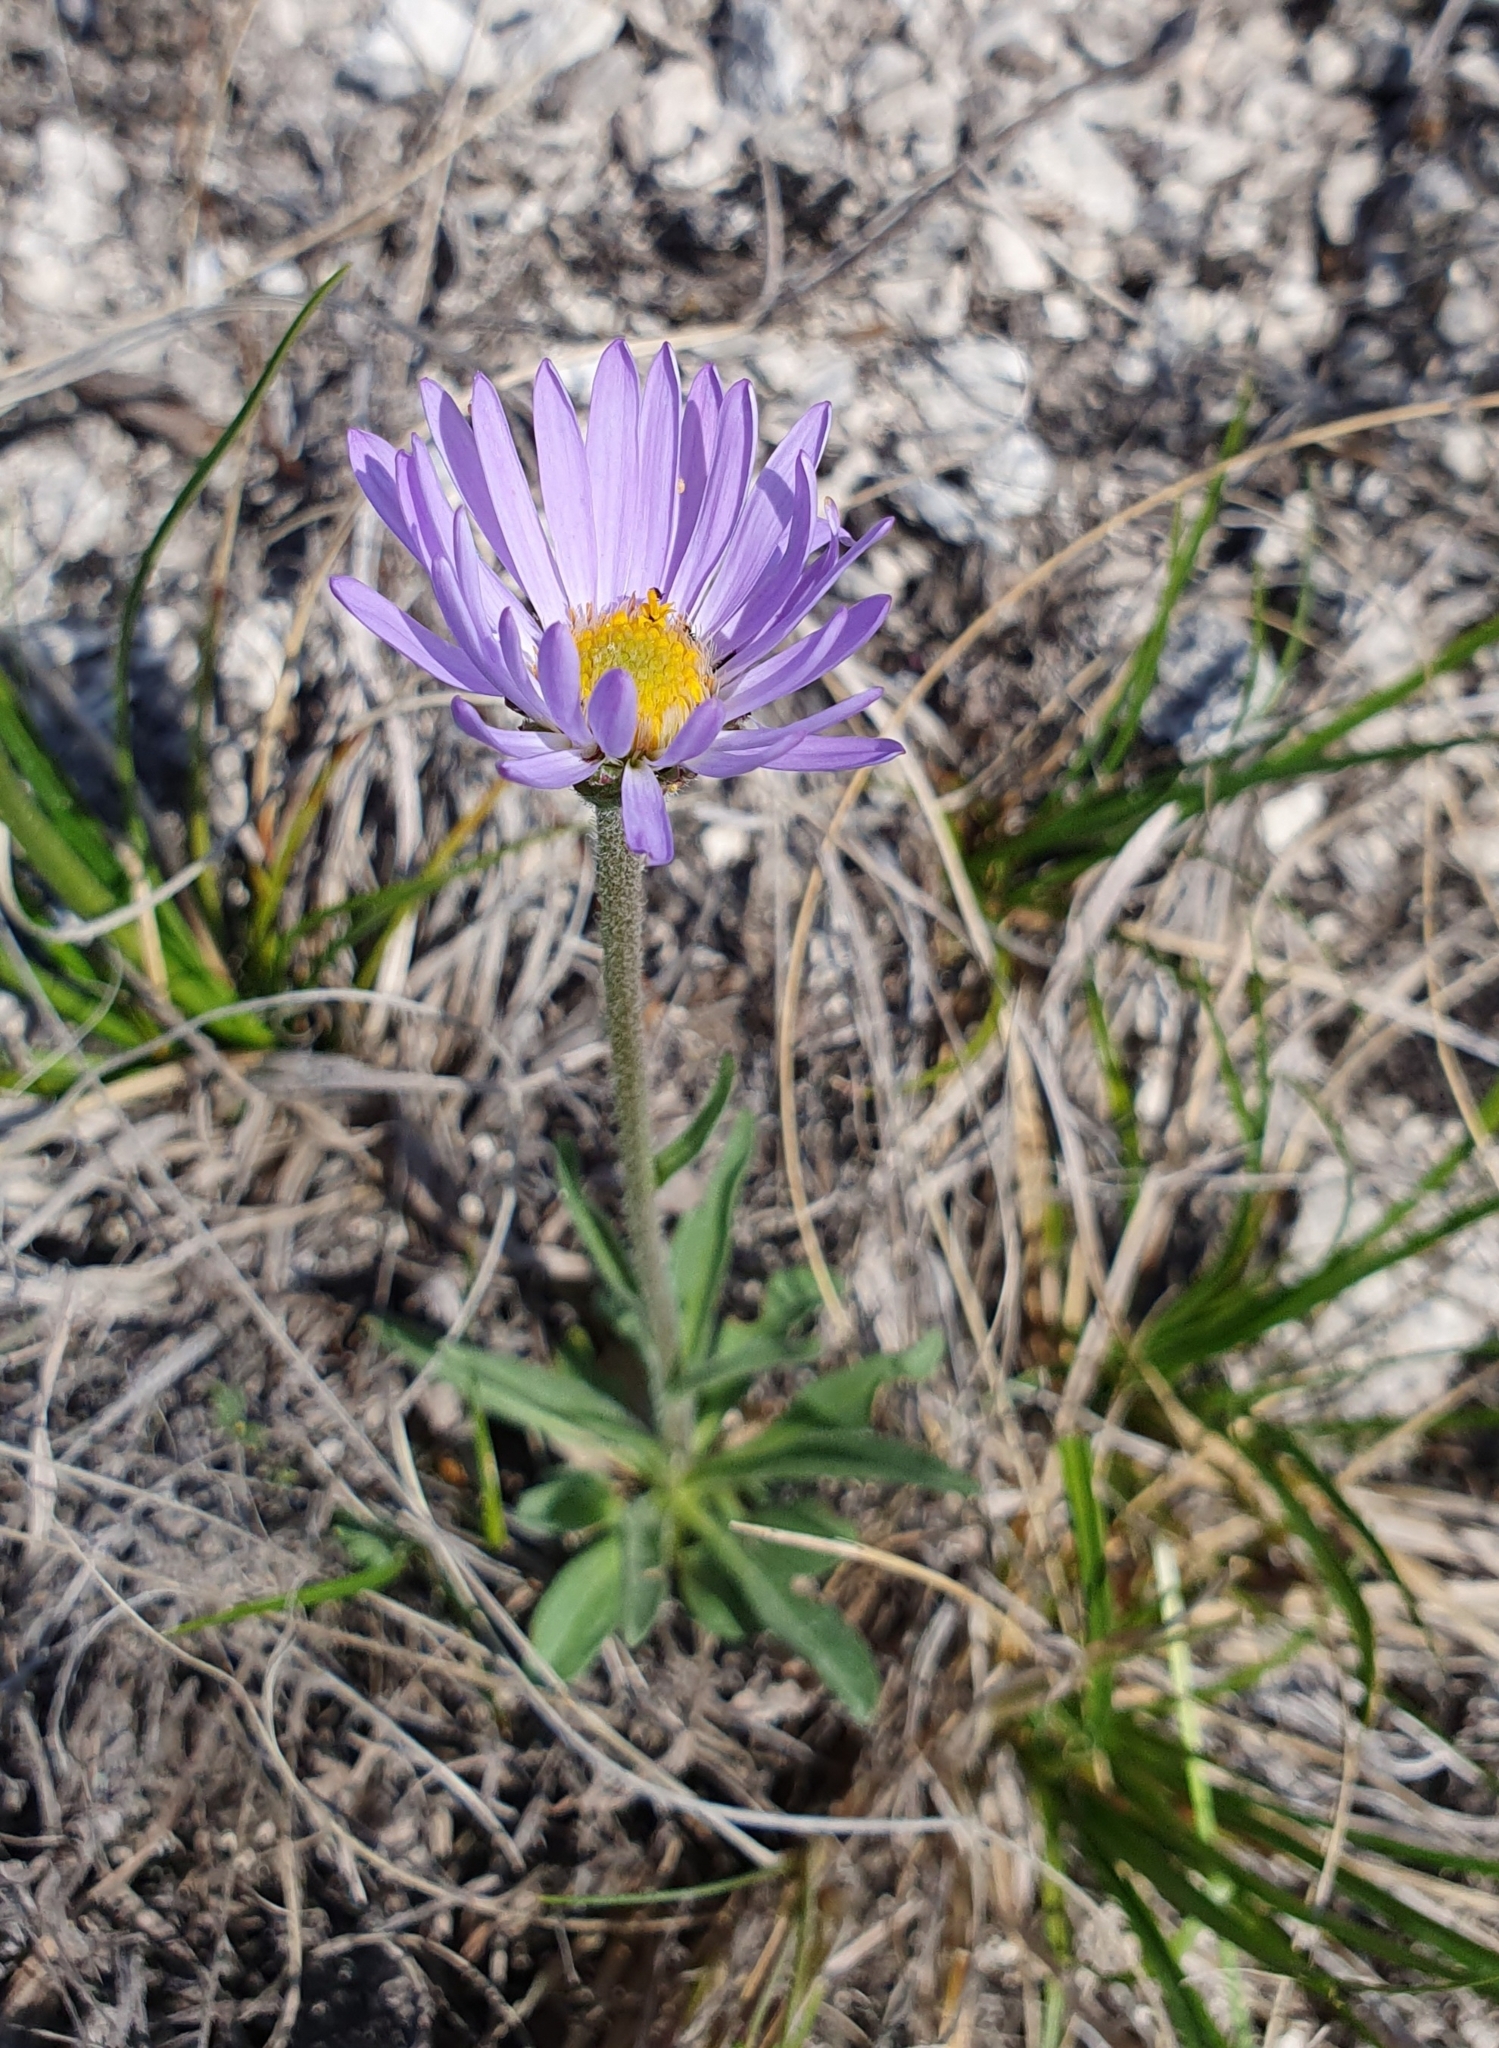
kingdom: Plantae
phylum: Tracheophyta
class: Magnoliopsida
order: Asterales
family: Asteraceae
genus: Aster
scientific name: Aster alpinus
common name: Alpine aster
